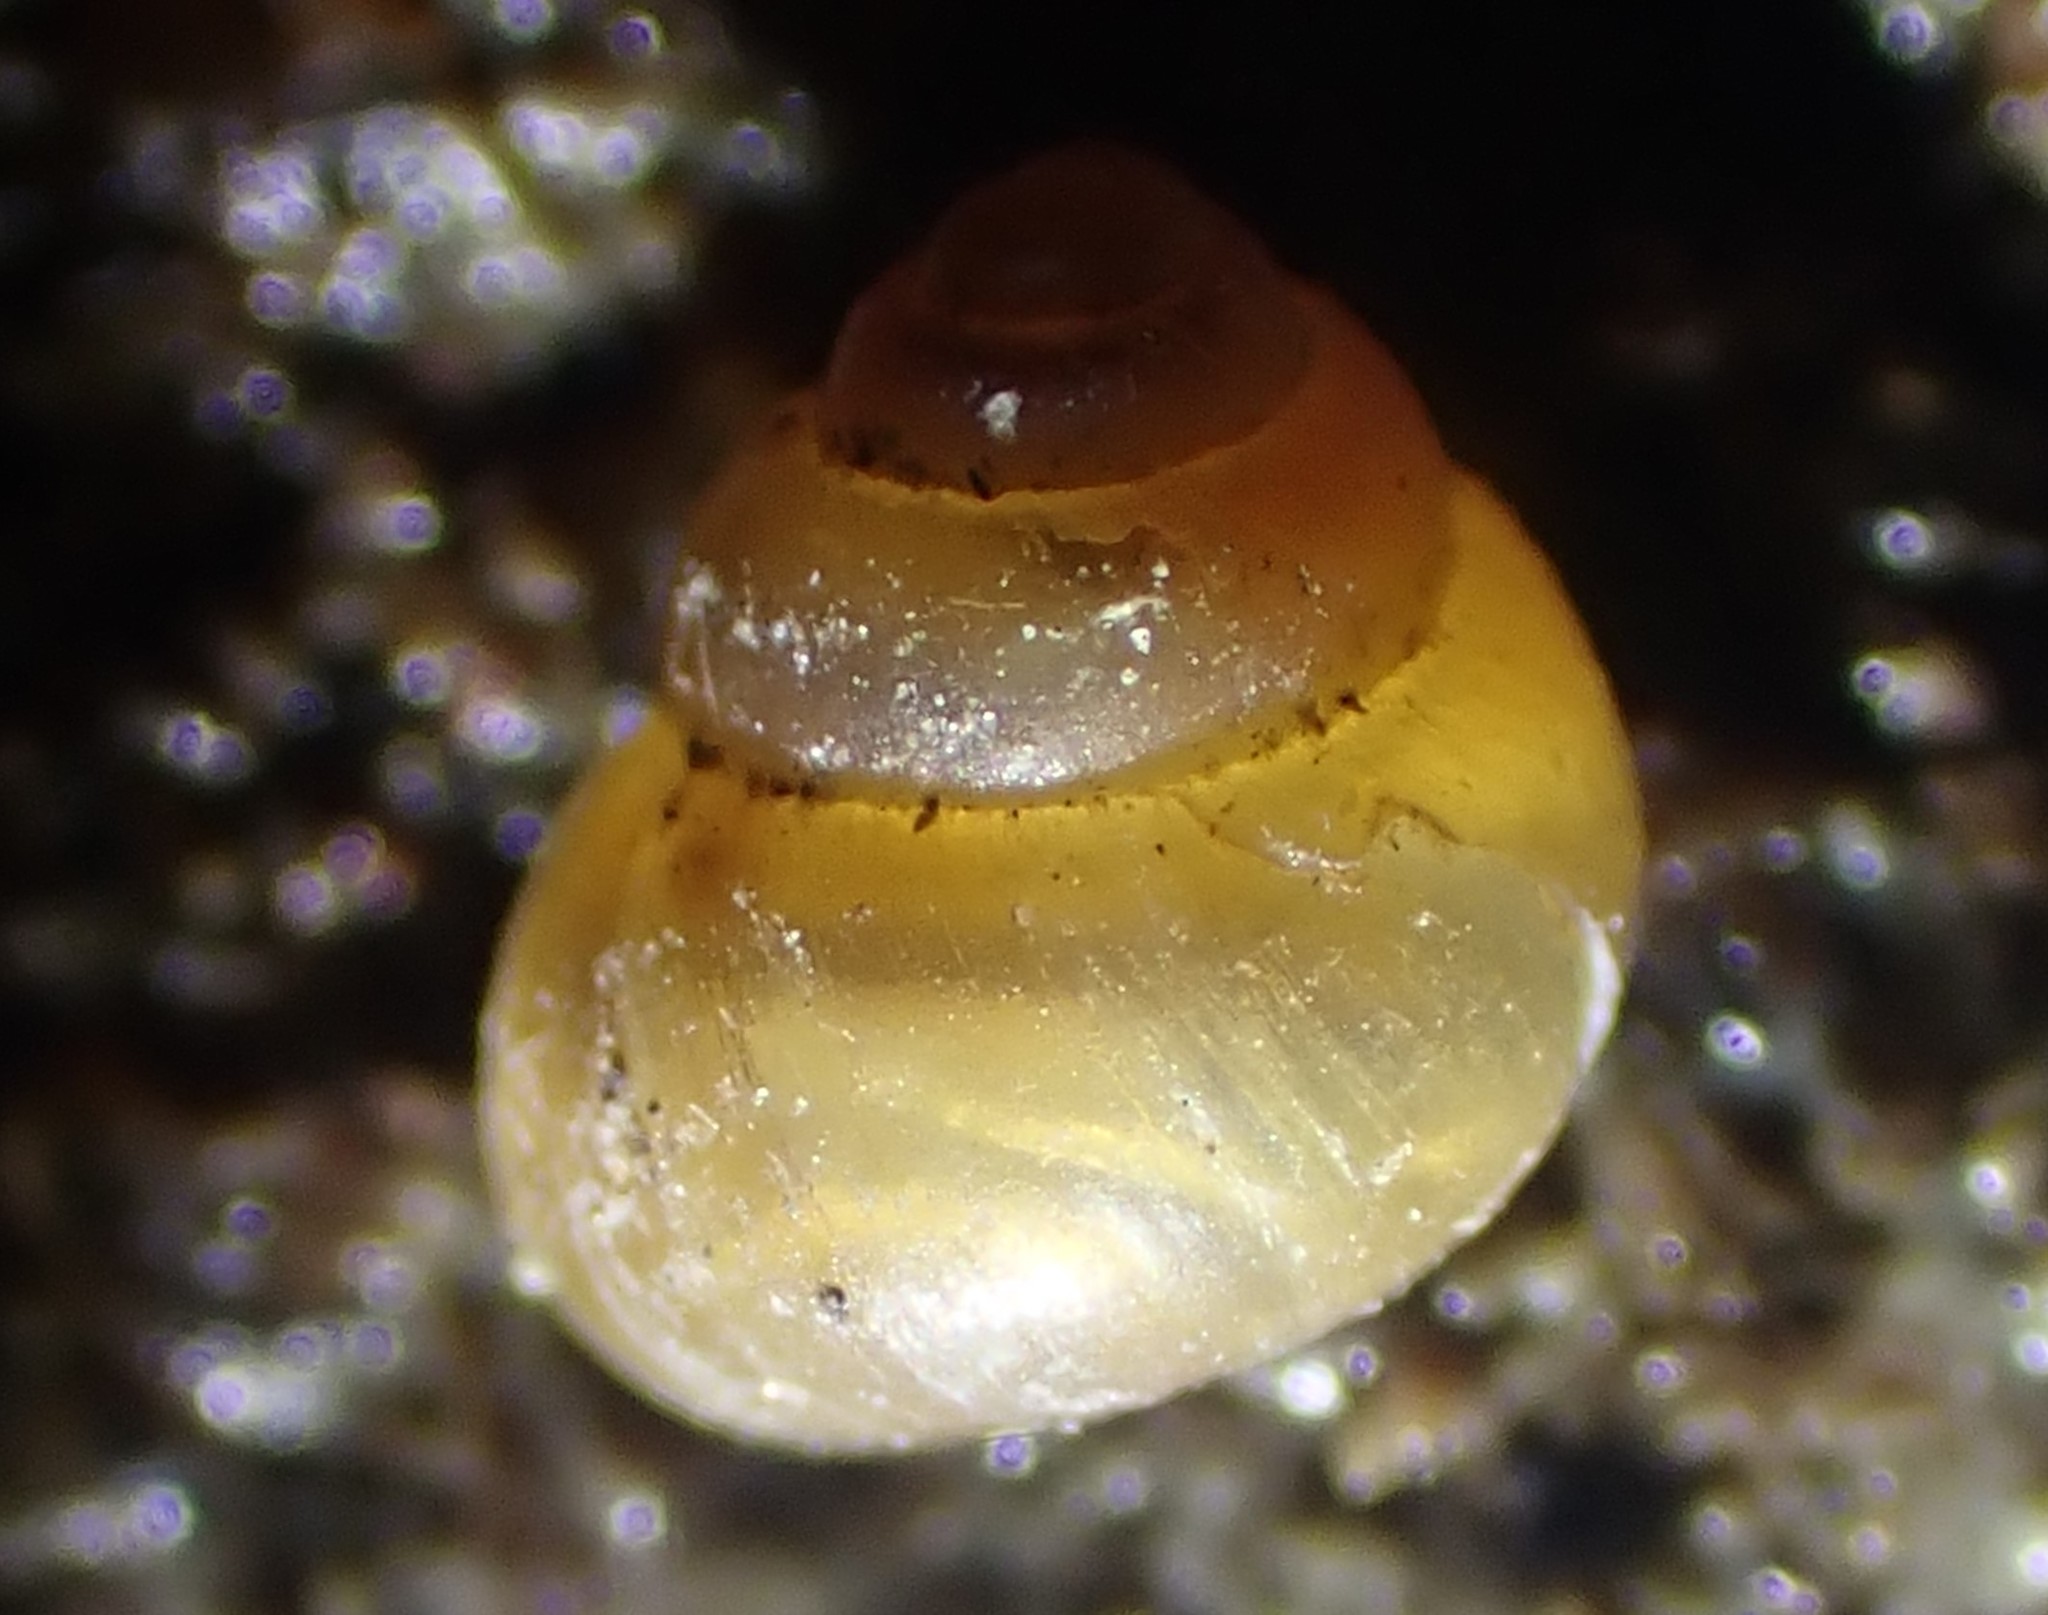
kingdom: Animalia
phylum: Mollusca
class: Gastropoda
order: Littorinimorpha
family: Assimineidae
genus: Suterilla
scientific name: Suterilla neozelanica
